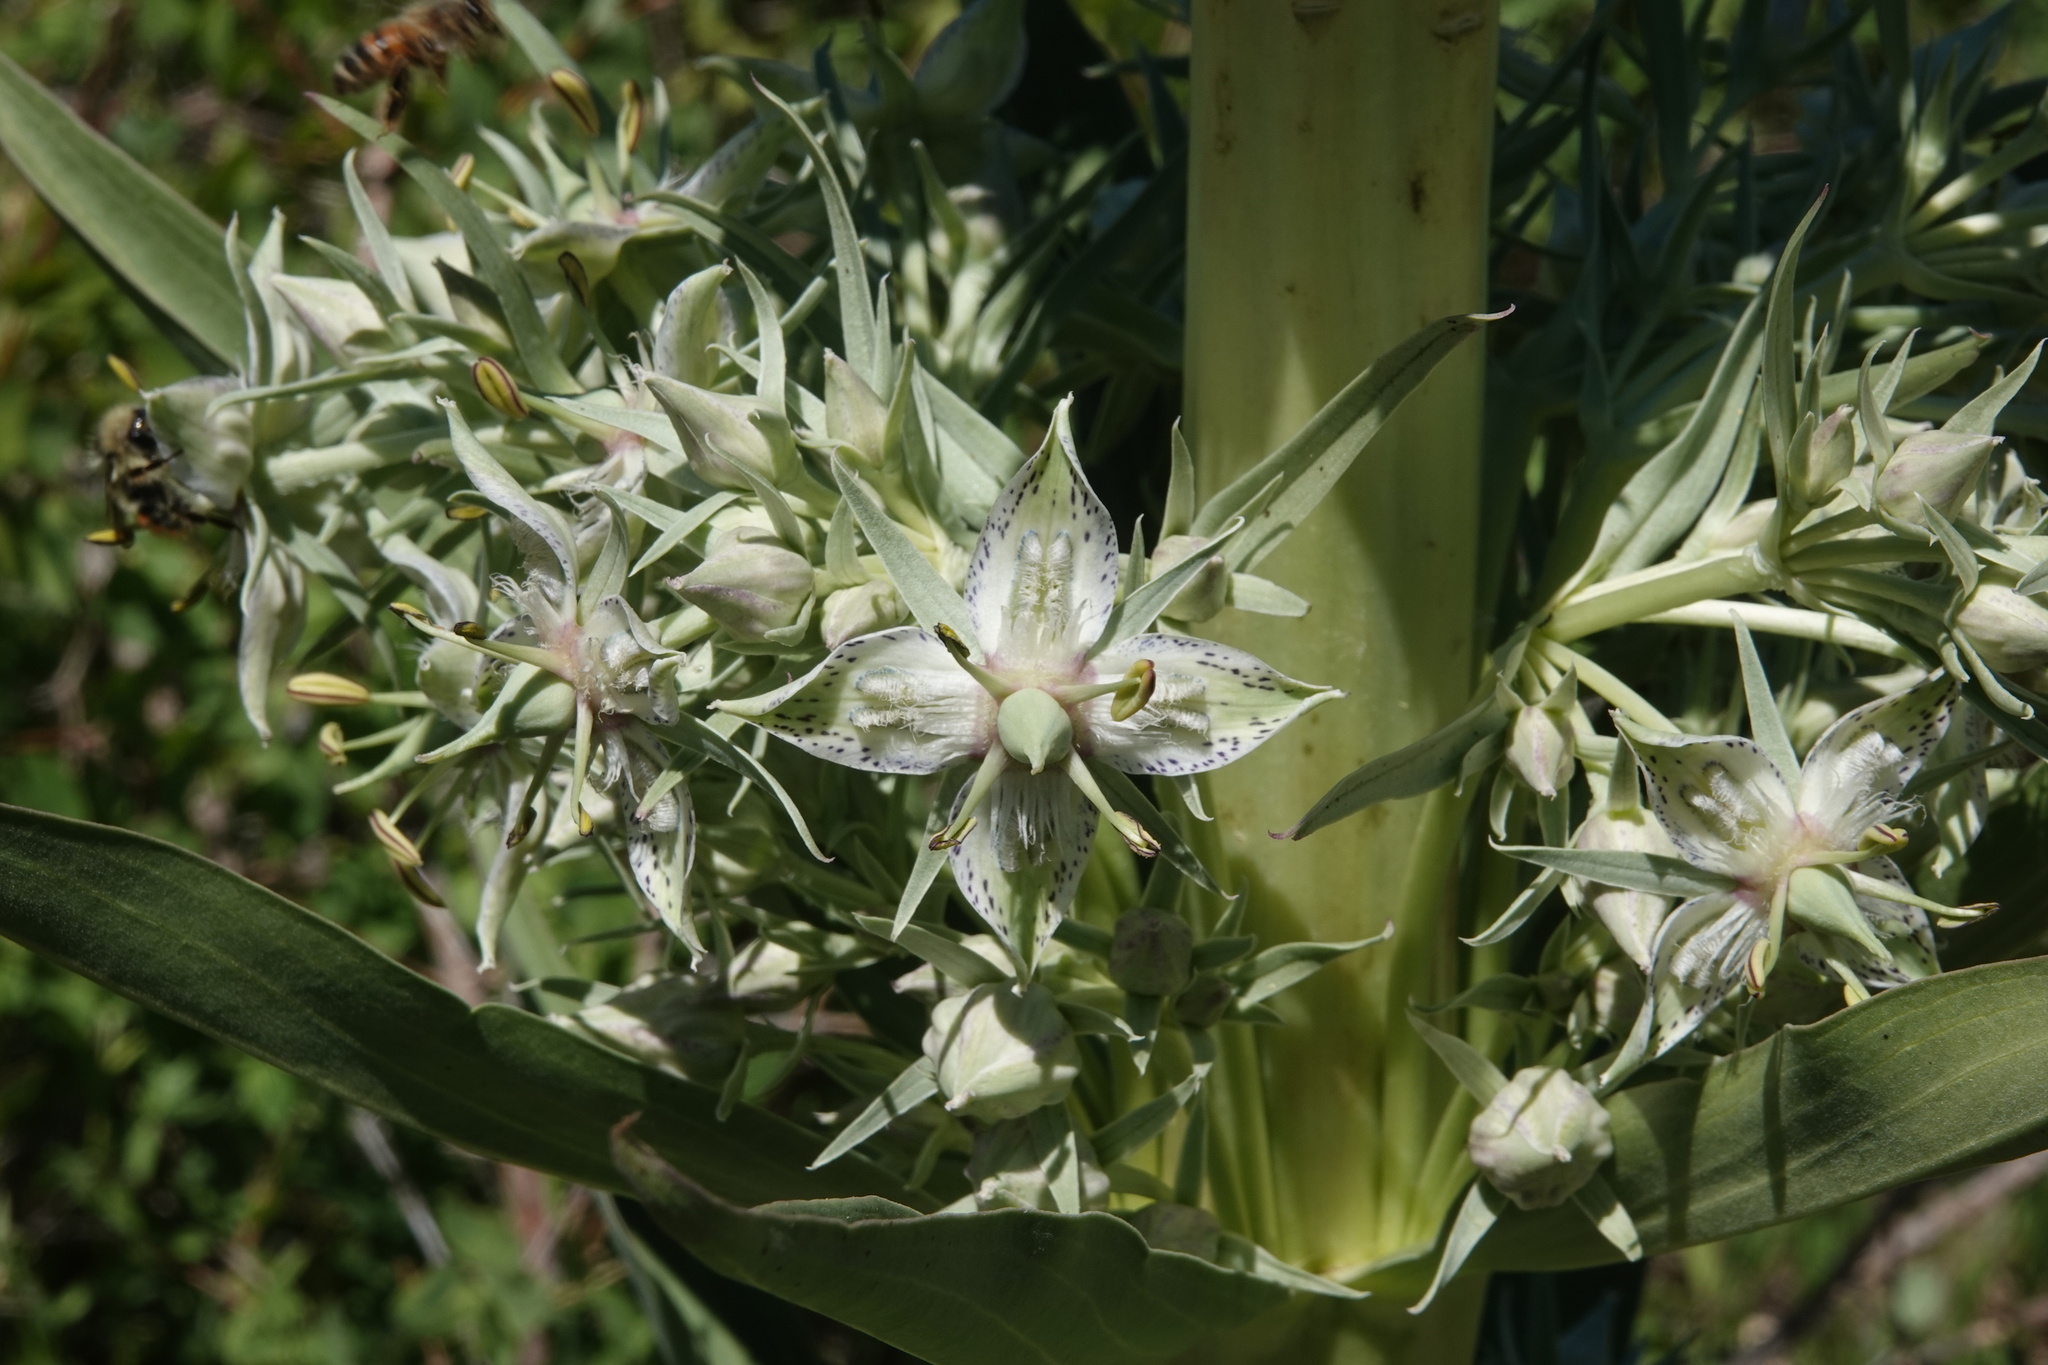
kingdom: Plantae
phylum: Tracheophyta
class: Magnoliopsida
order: Gentianales
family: Gentianaceae
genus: Frasera
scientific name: Frasera speciosa
